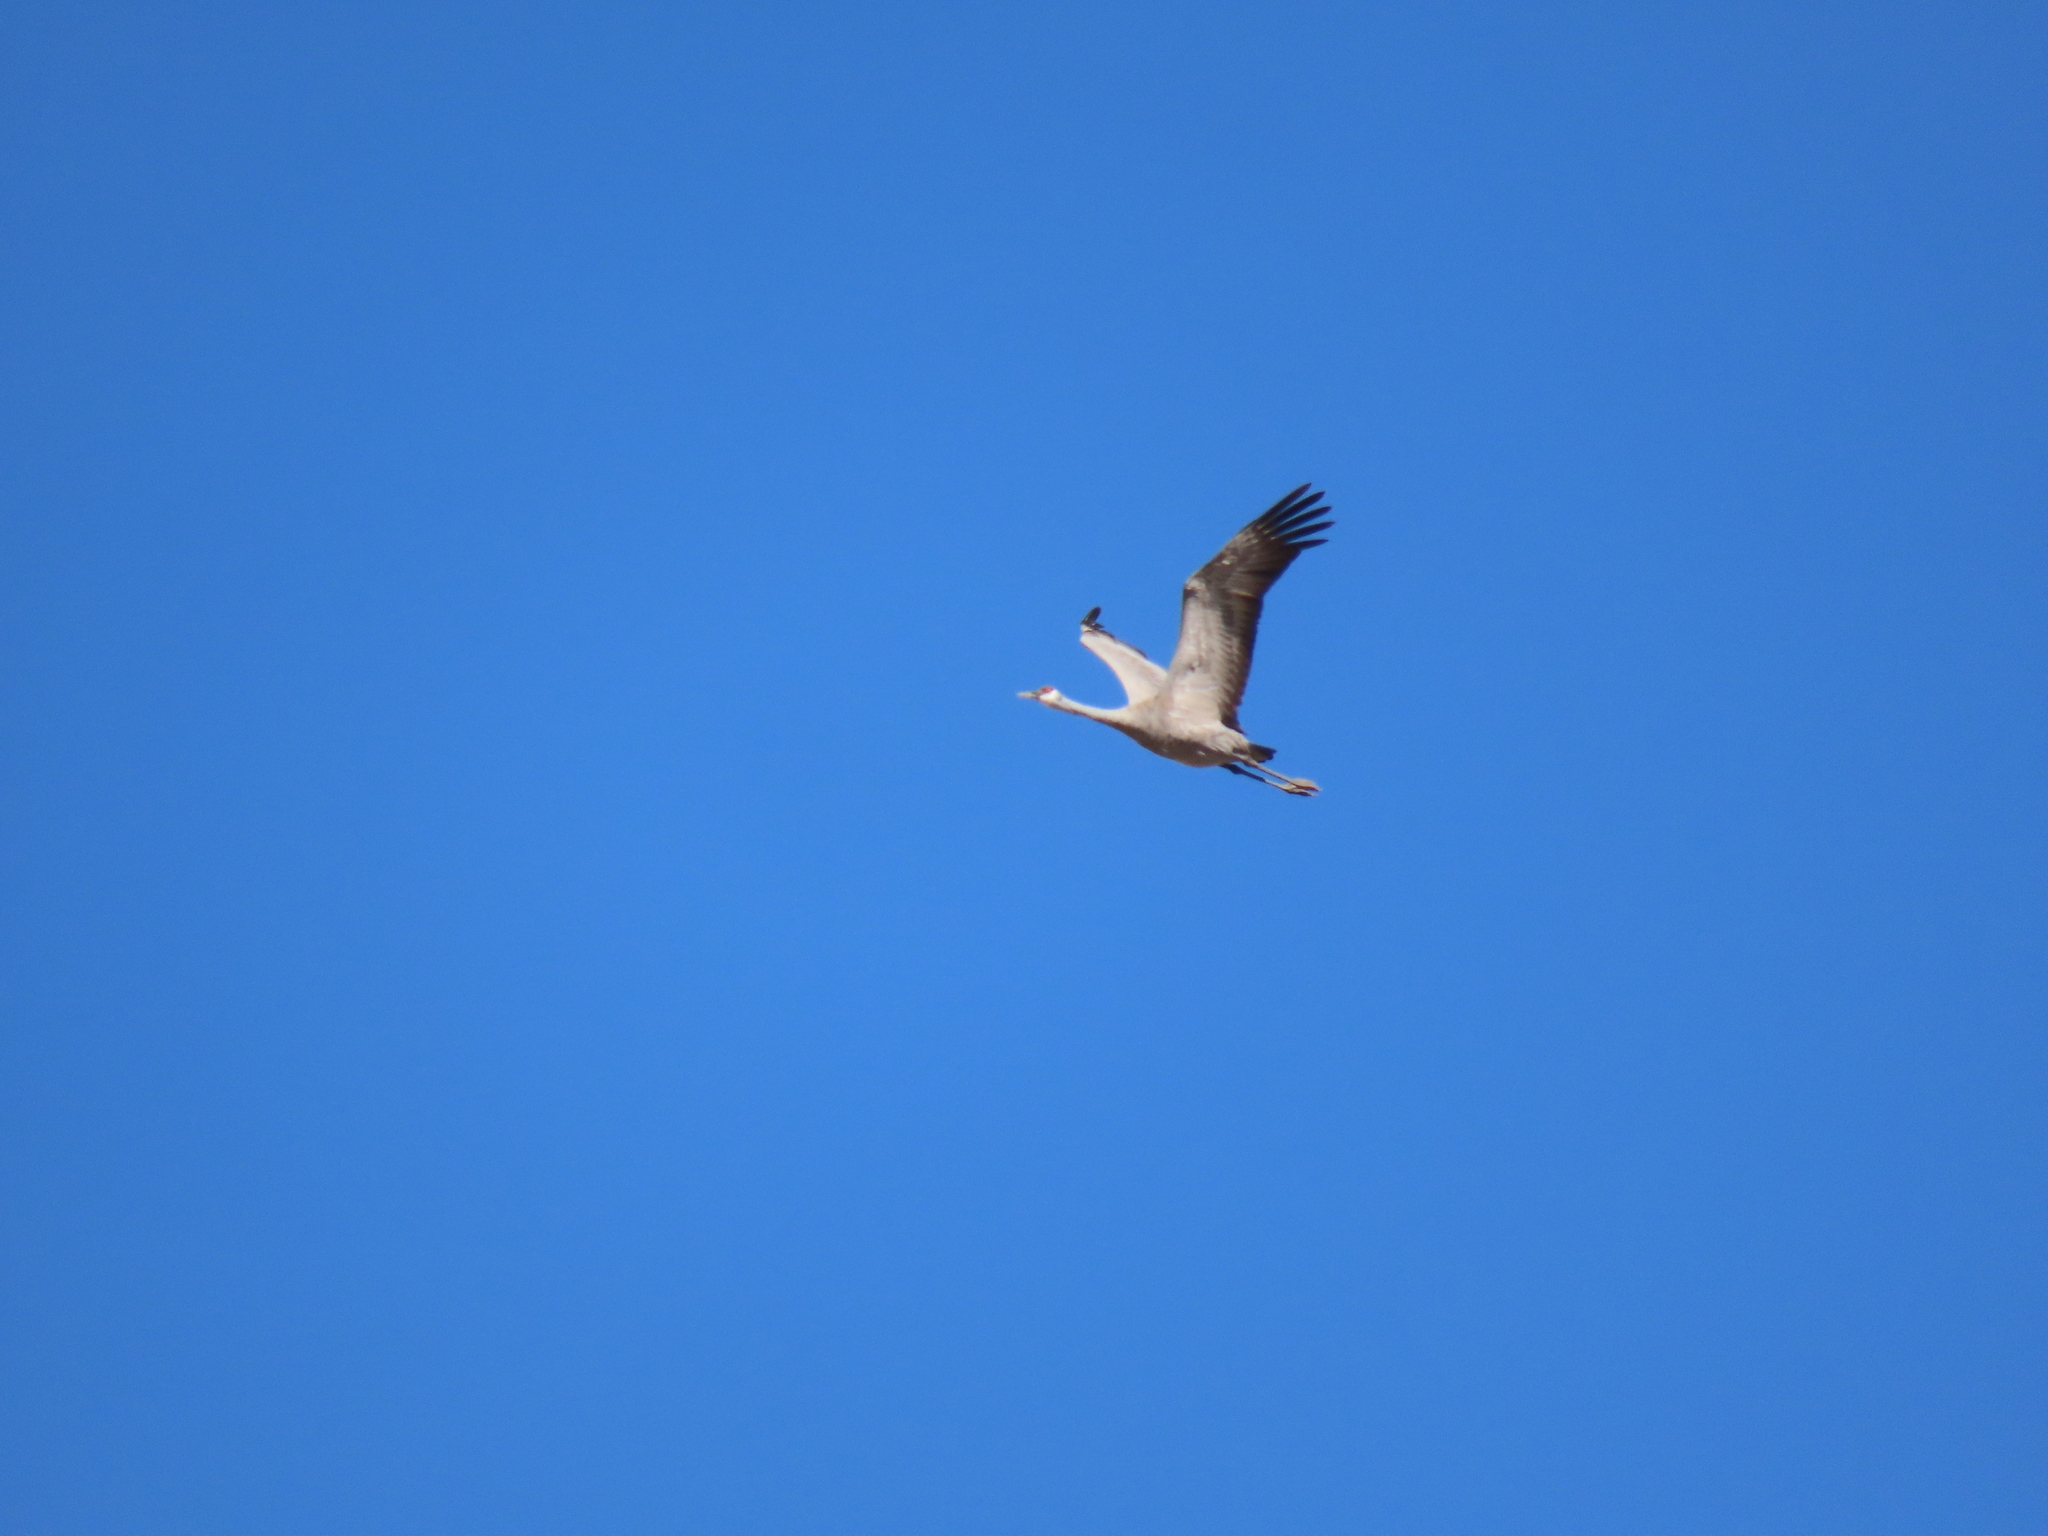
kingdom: Animalia
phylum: Chordata
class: Aves
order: Gruiformes
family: Gruidae
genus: Grus
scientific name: Grus canadensis
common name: Sandhill crane
